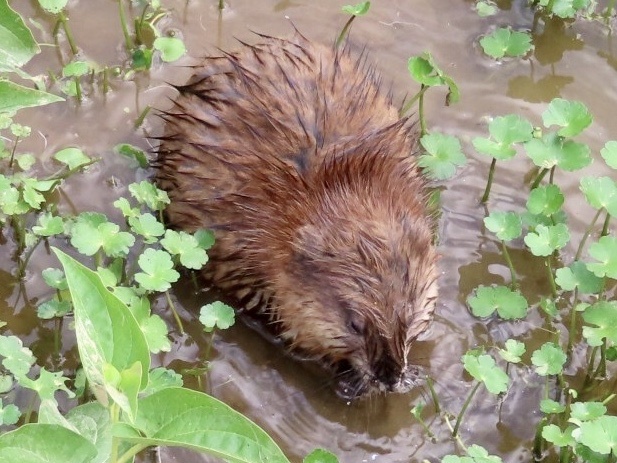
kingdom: Animalia
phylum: Chordata
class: Mammalia
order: Rodentia
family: Cricetidae
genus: Ondatra
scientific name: Ondatra zibethicus
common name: Muskrat
